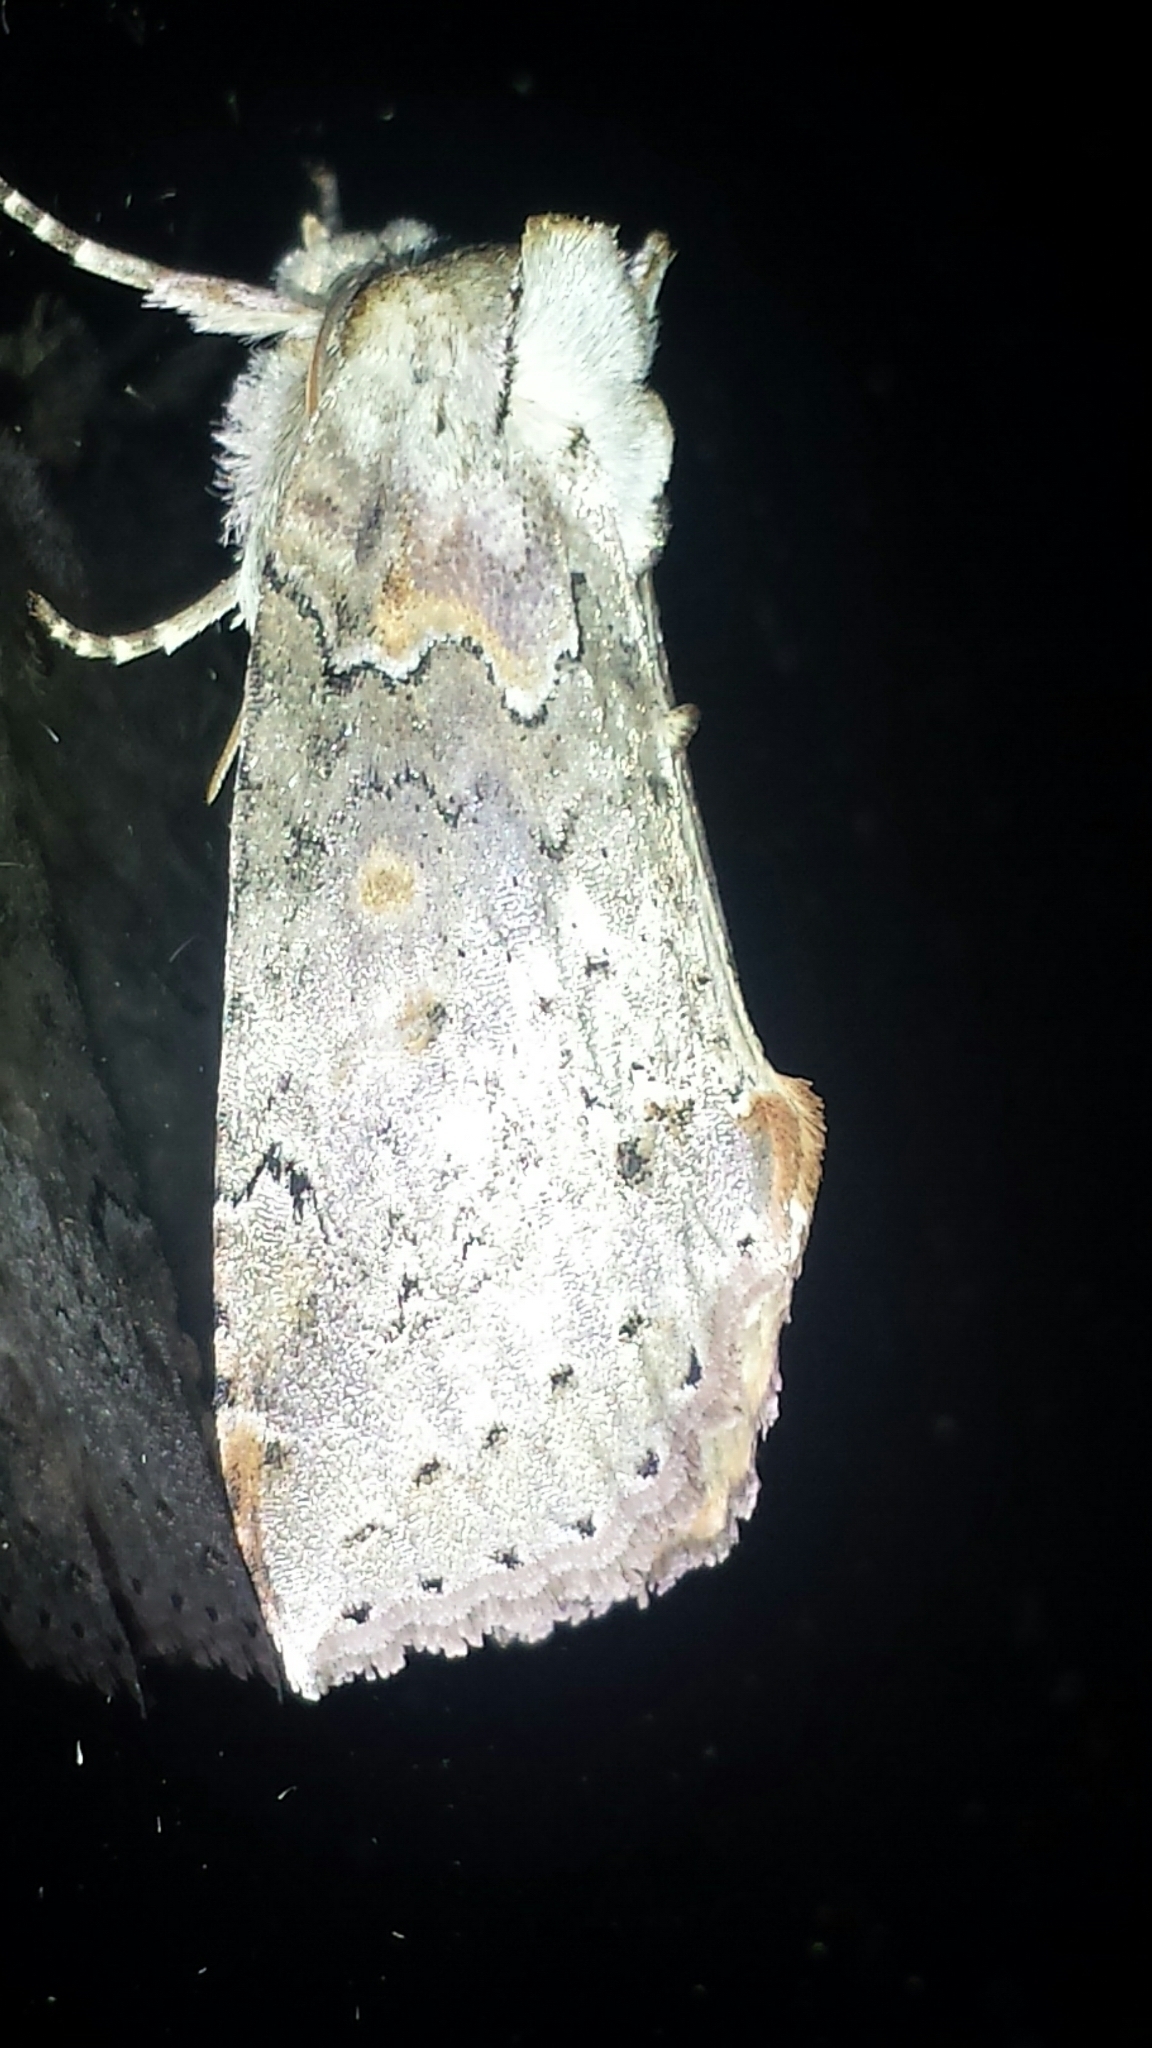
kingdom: Animalia
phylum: Arthropoda
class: Insecta
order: Lepidoptera
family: Drepanidae
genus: Pseudothyatira
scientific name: Pseudothyatira cymatophoroides
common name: Tufted thyatirid moth
